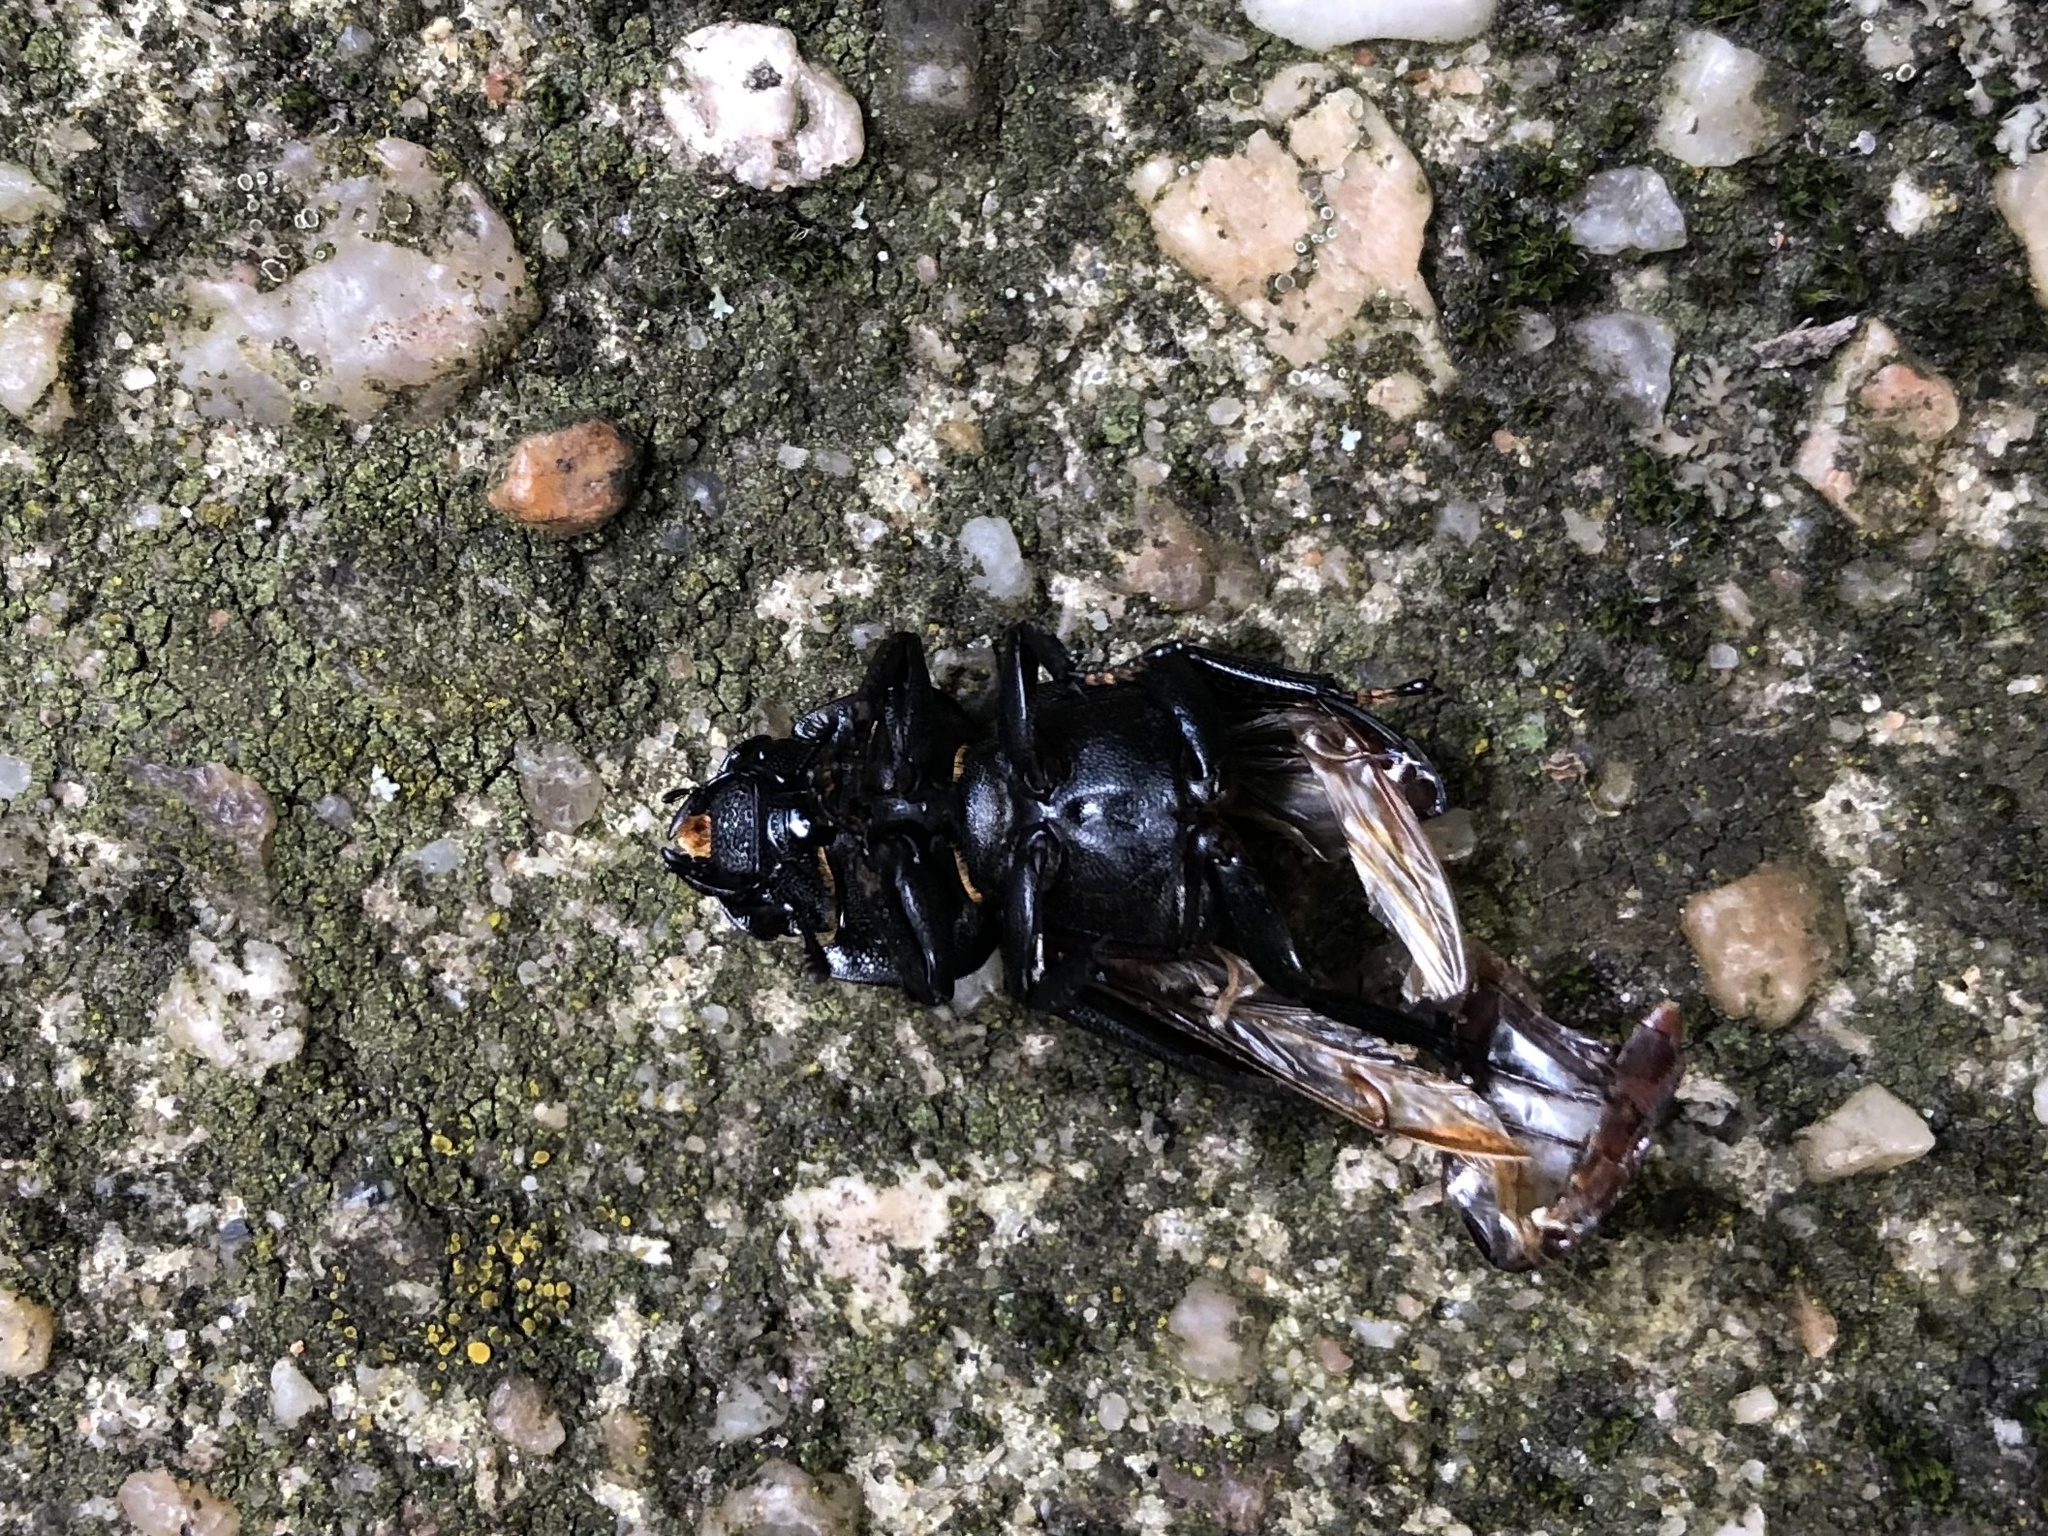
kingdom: Animalia
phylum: Arthropoda
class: Insecta
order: Coleoptera
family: Lucanidae
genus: Dorcus
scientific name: Dorcus parallelipipedus
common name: Lesser stag beetle
